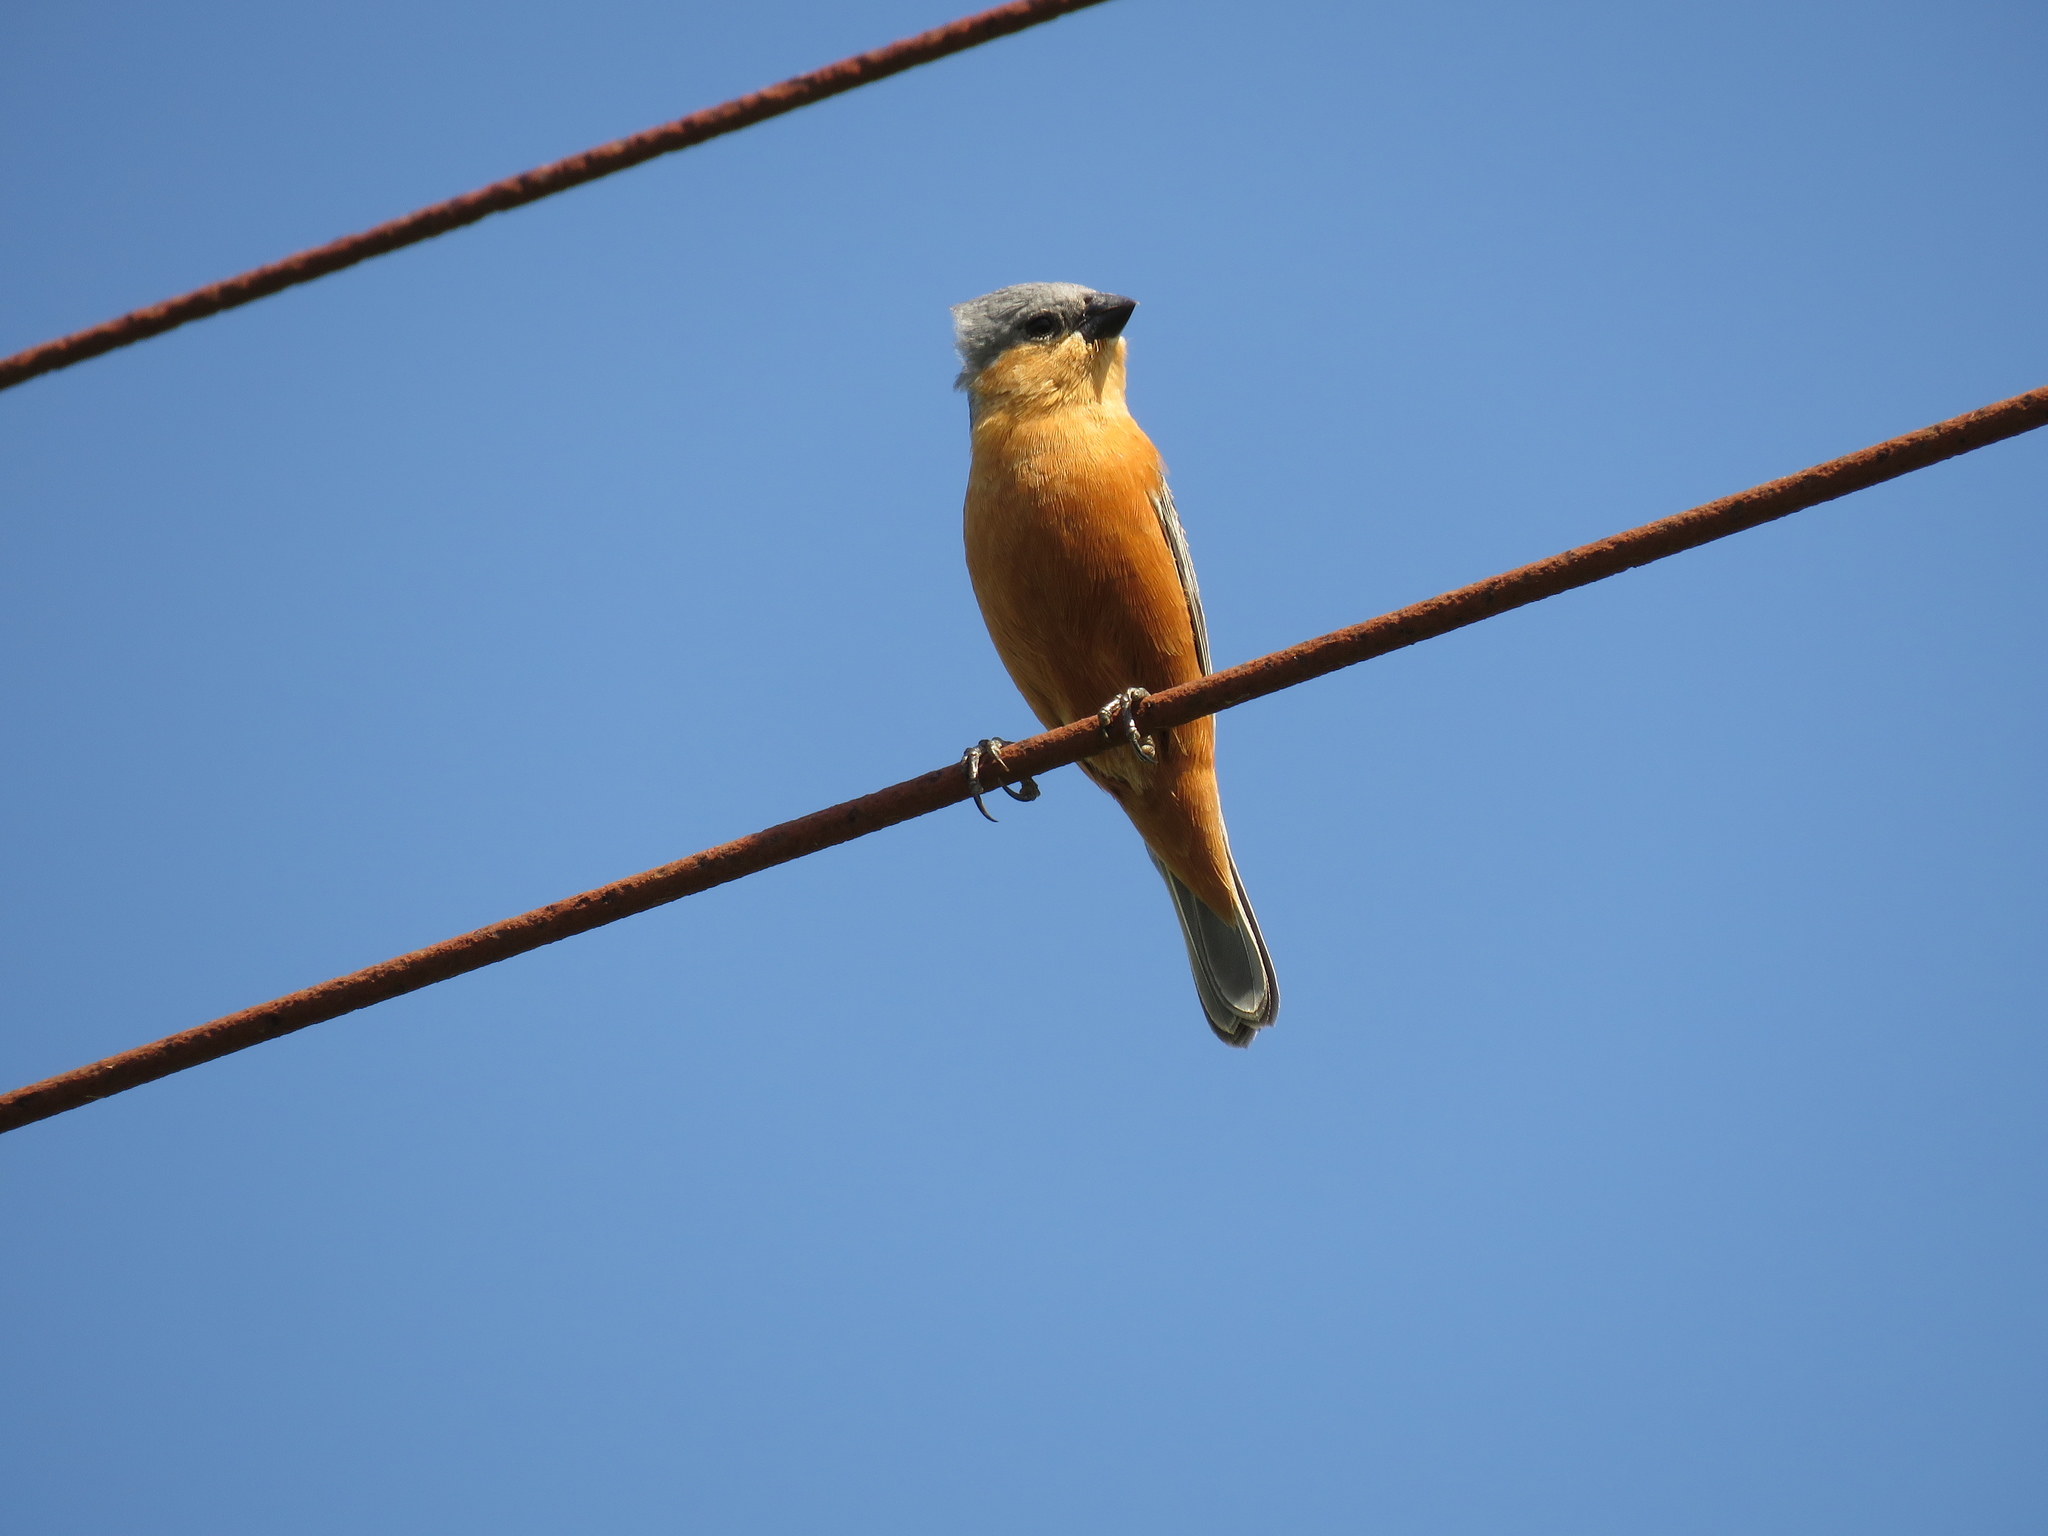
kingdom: Animalia
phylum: Chordata
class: Aves
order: Passeriformes
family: Thraupidae
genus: Sporophila
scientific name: Sporophila hypoxantha
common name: Tawny-bellied seedeater
